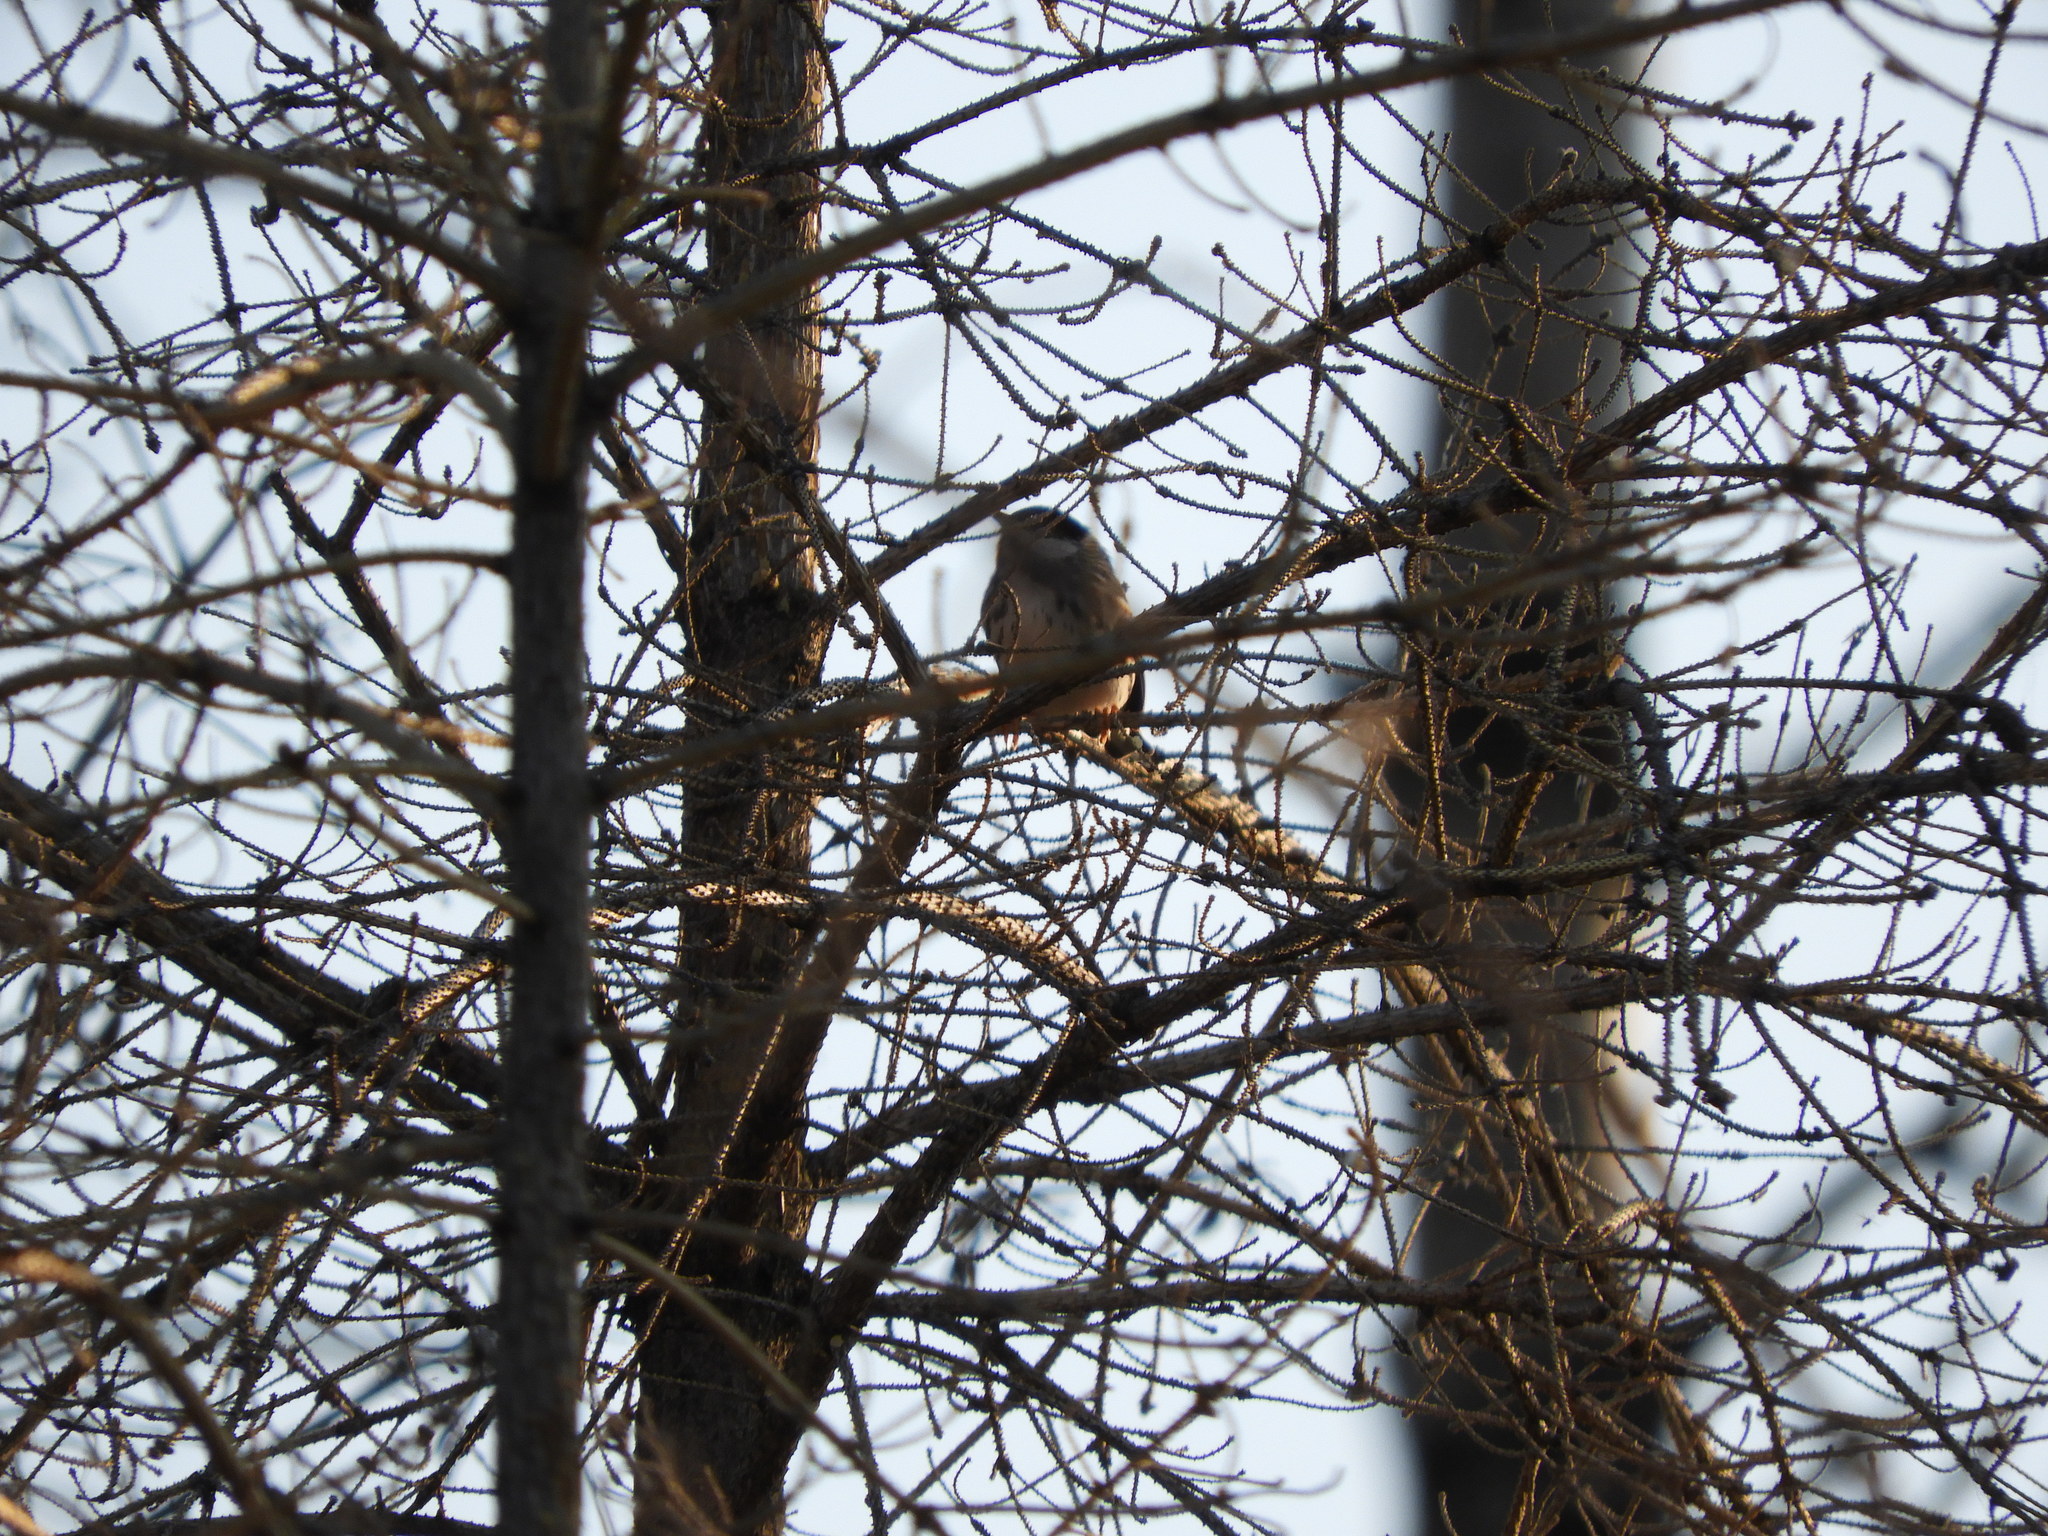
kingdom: Animalia
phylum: Chordata
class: Aves
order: Passeriformes
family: Parulidae
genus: Setophaga
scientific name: Setophaga striata
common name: Blackpoll warbler
